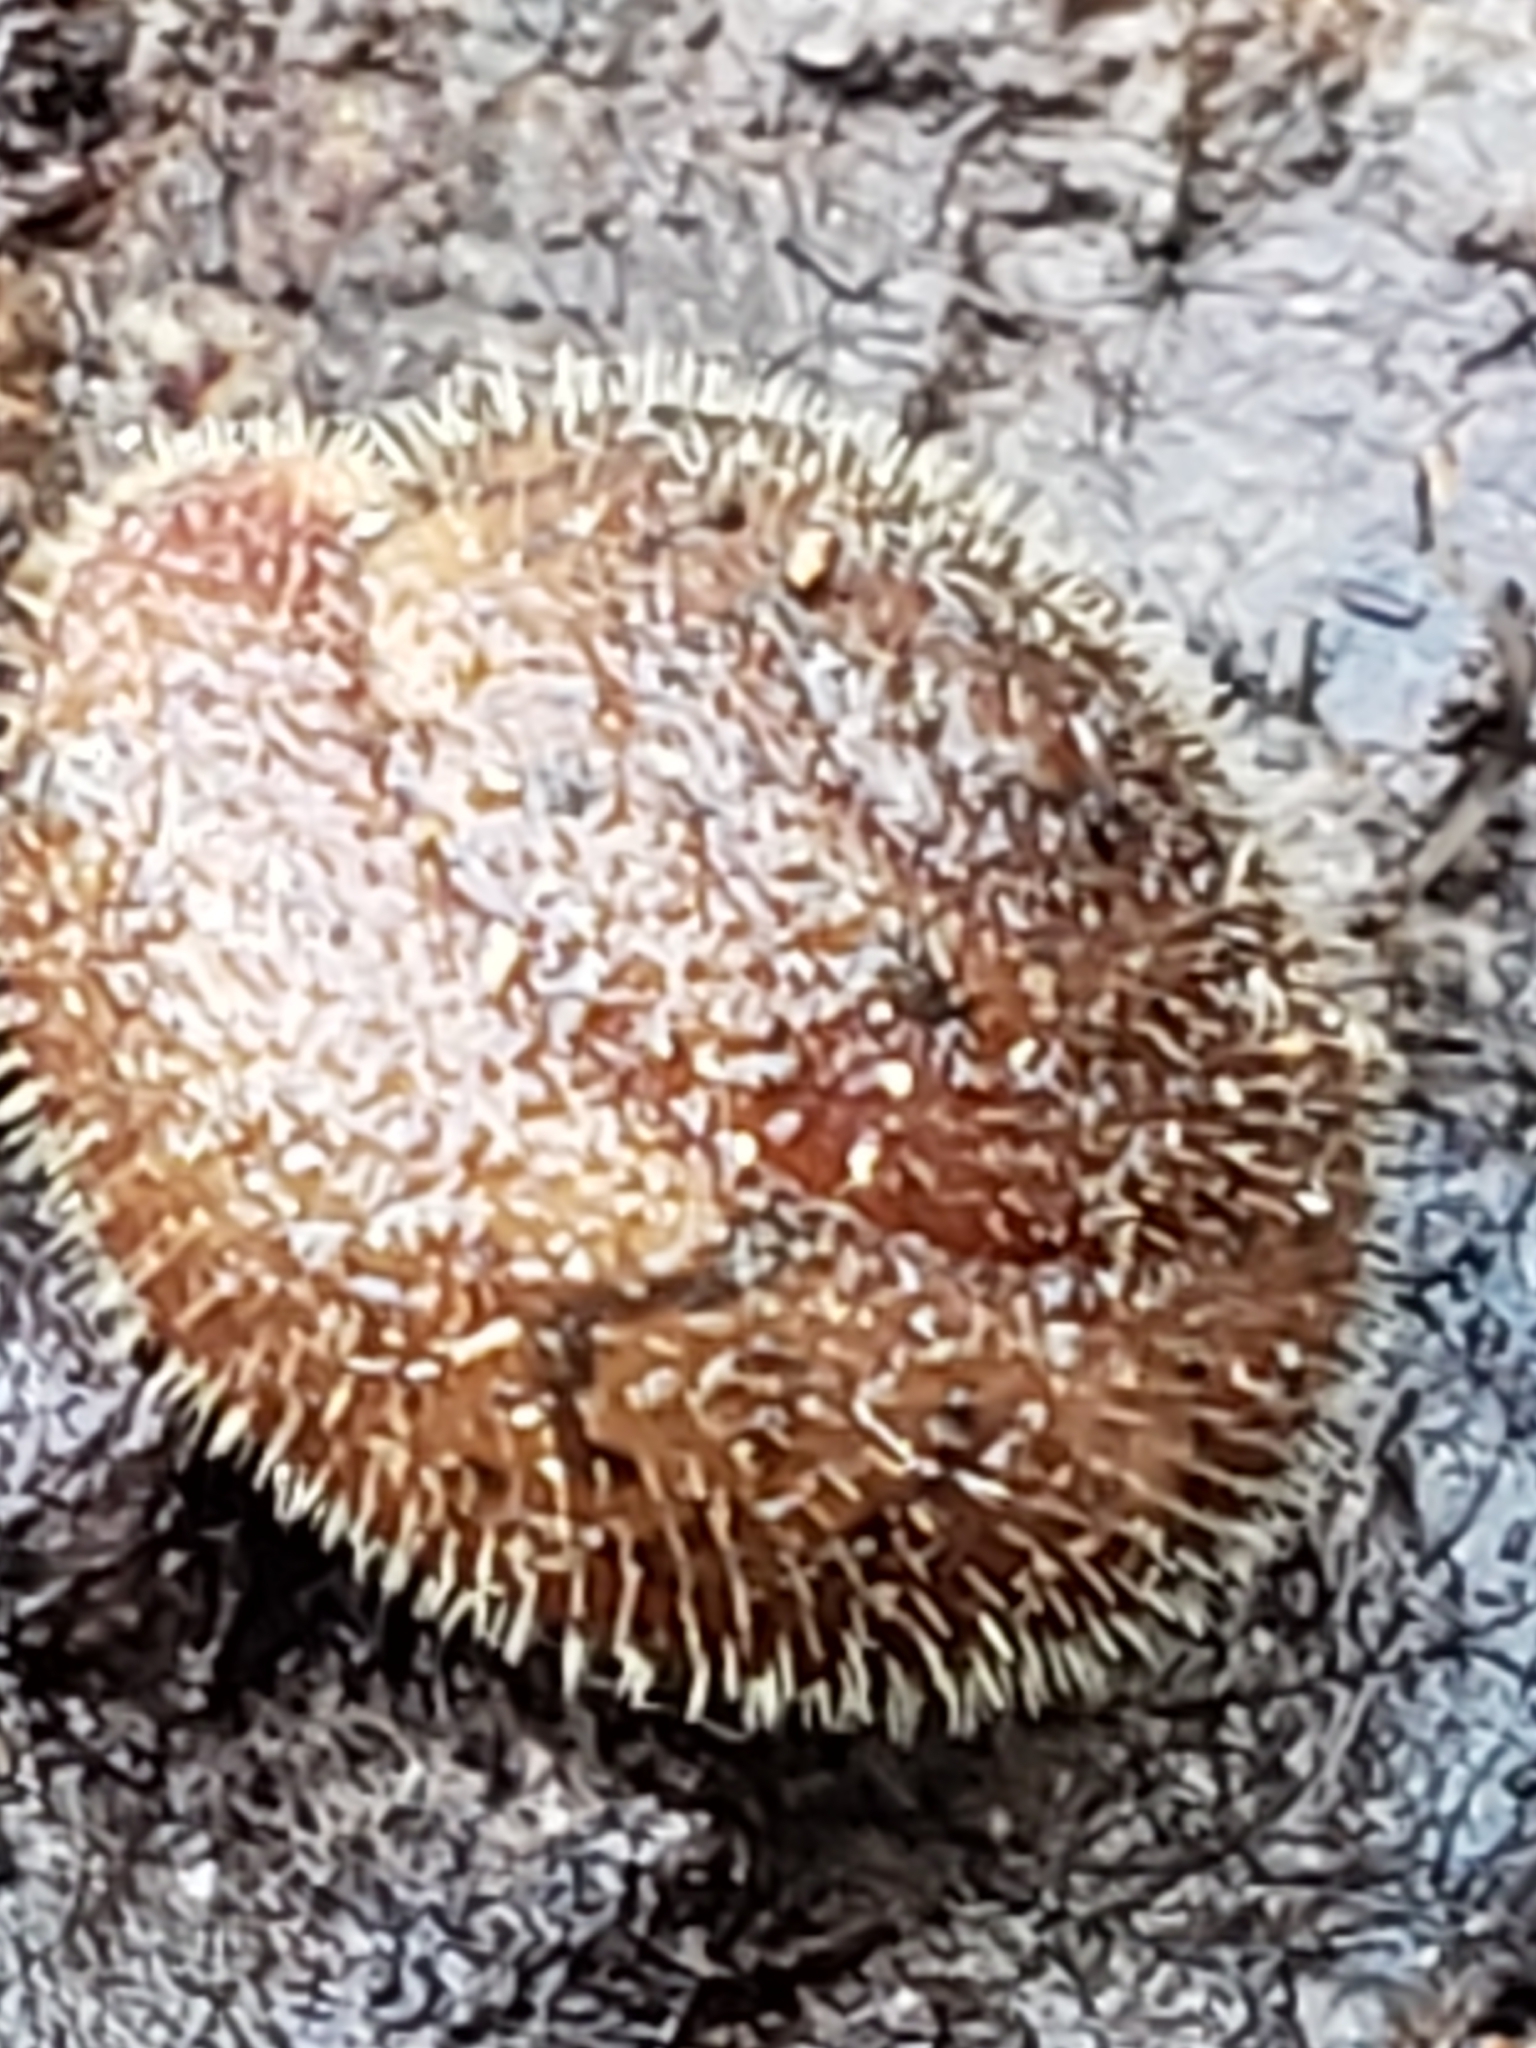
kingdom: Animalia
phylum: Mollusca
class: Gastropoda
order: Stylommatophora
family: Polygyridae
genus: Stenotrema
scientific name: Stenotrema hirsutum
